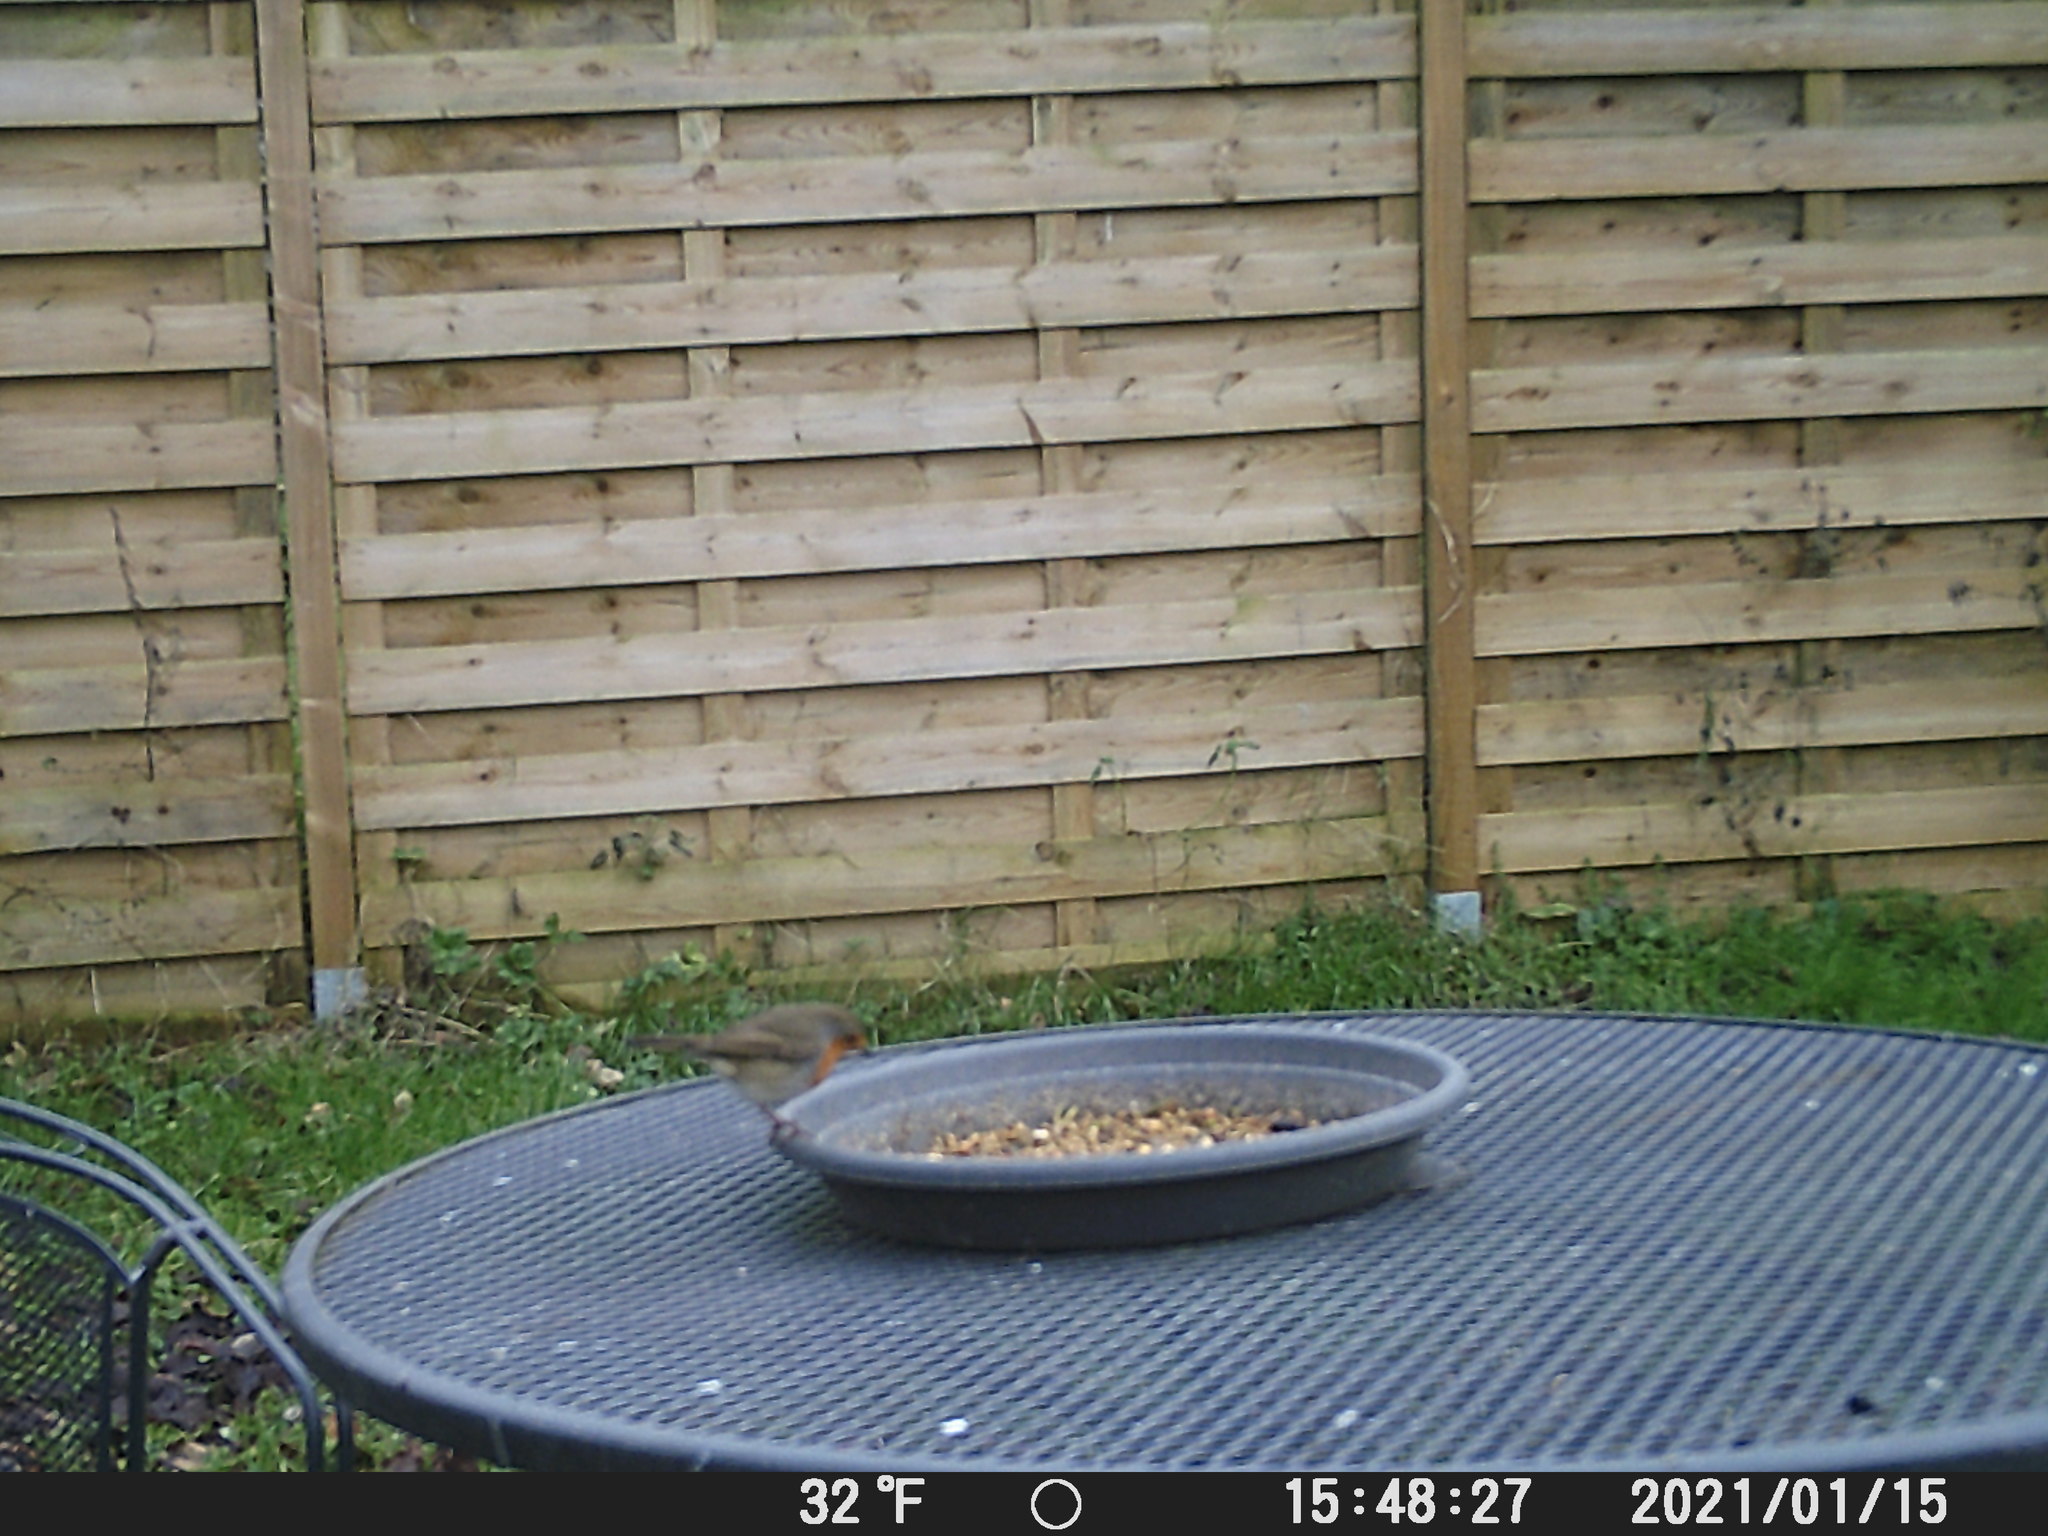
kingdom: Animalia
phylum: Chordata
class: Aves
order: Passeriformes
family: Muscicapidae
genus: Erithacus
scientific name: Erithacus rubecula
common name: European robin
